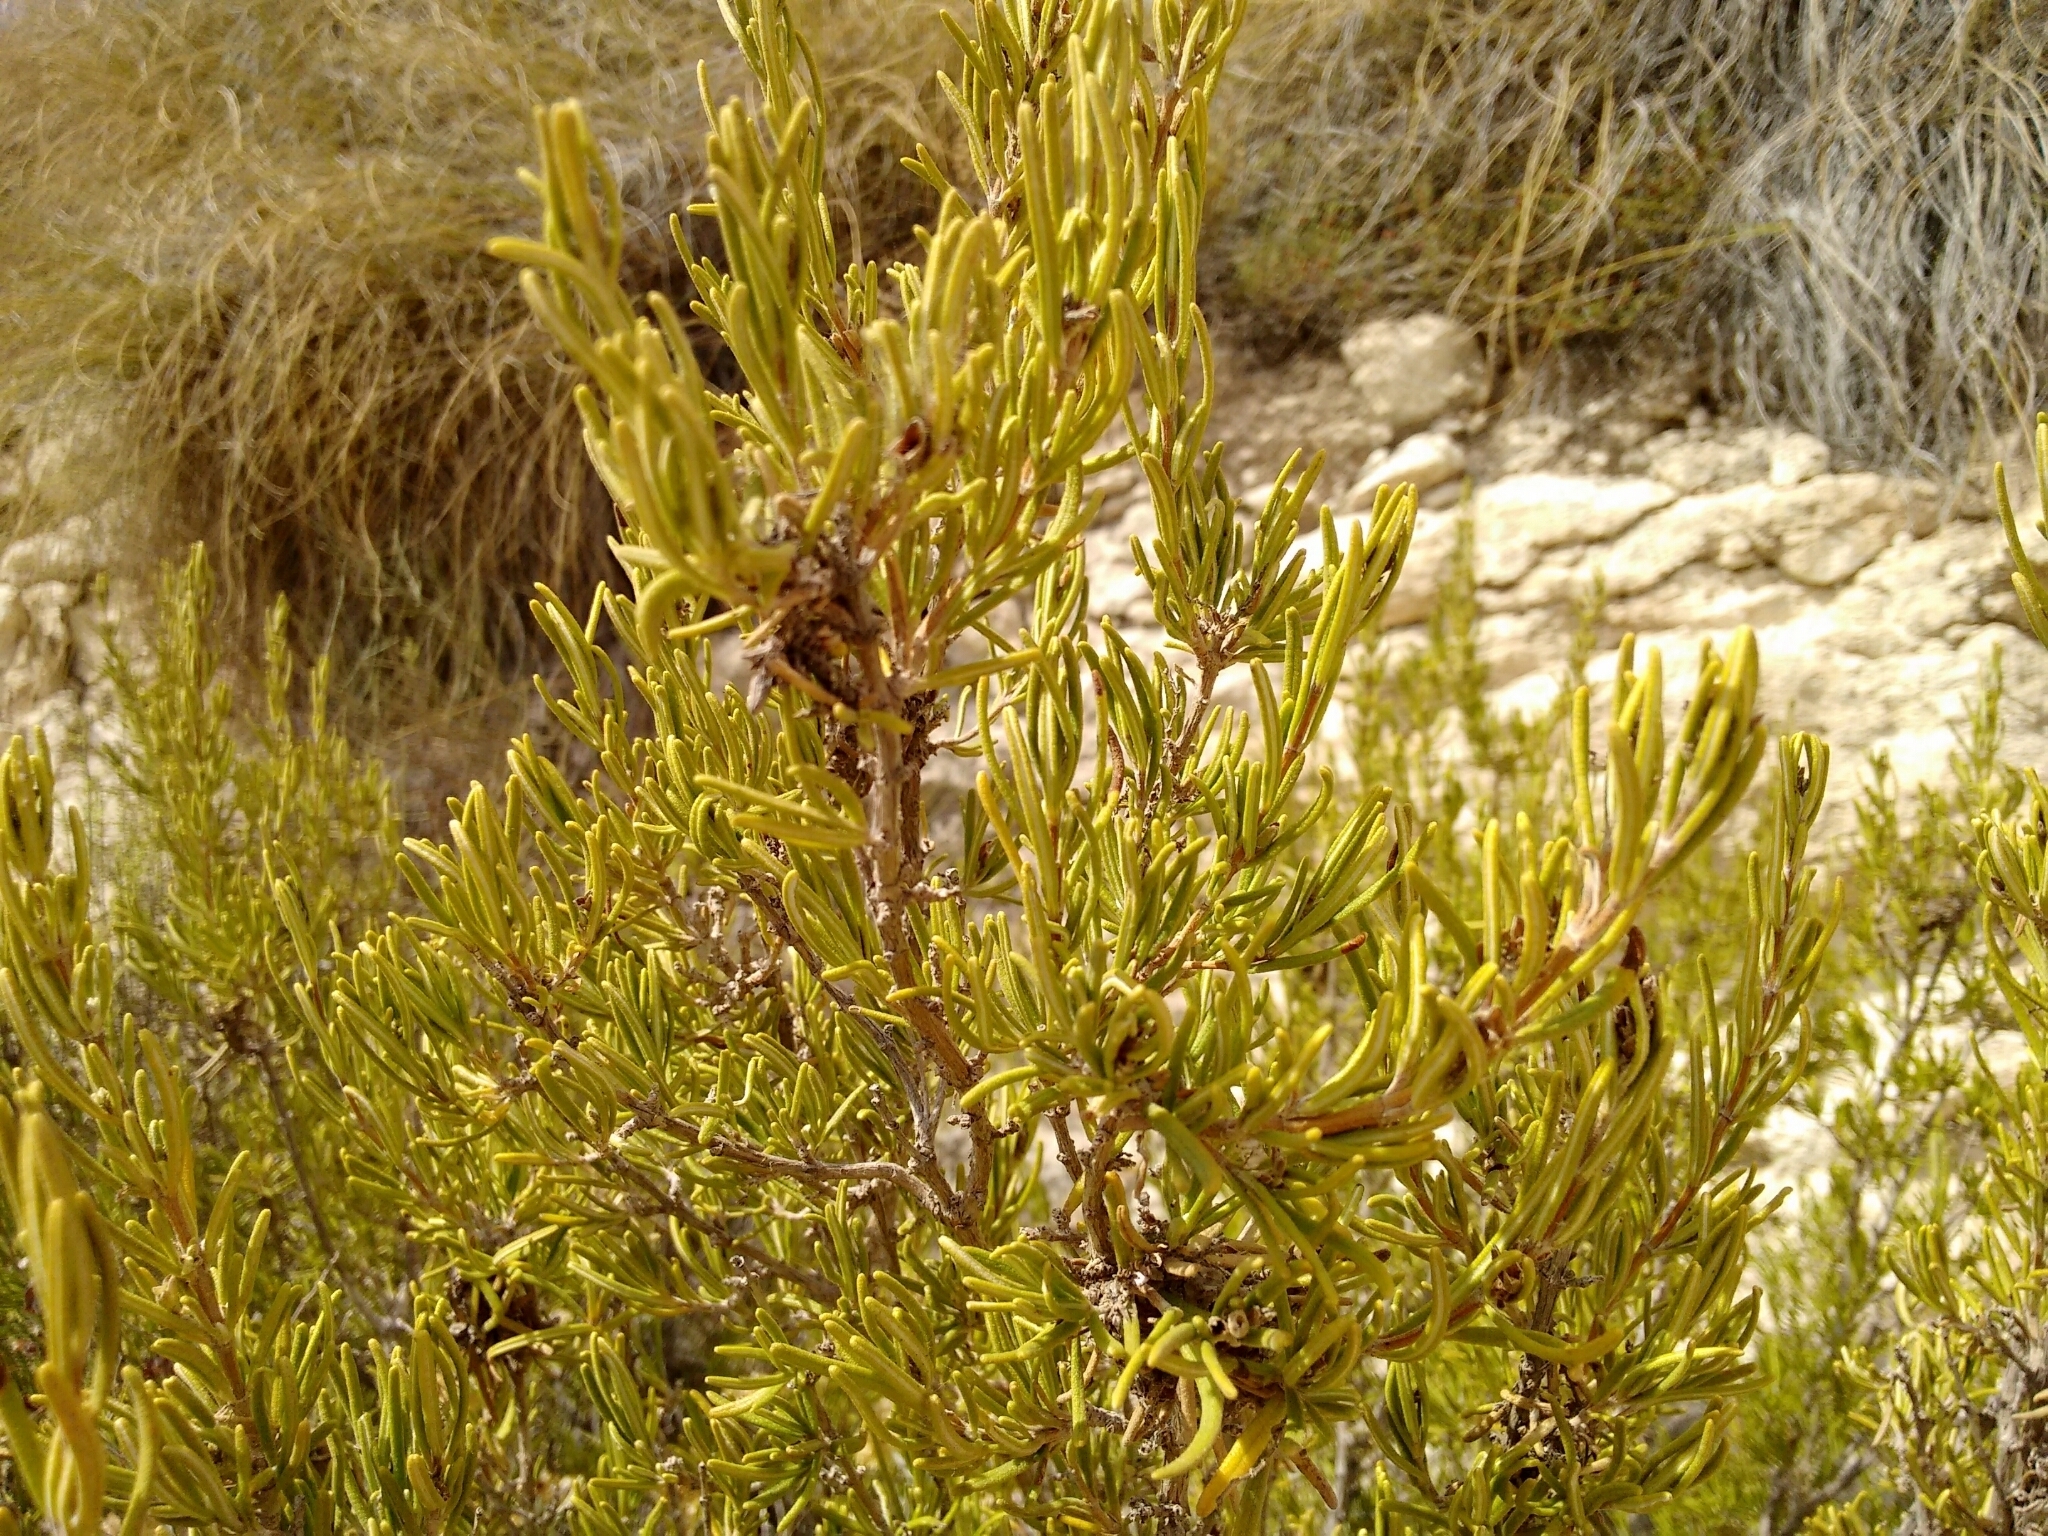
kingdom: Plantae
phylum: Tracheophyta
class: Magnoliopsida
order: Lamiales
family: Lamiaceae
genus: Salvia
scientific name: Salvia rosmarinus
